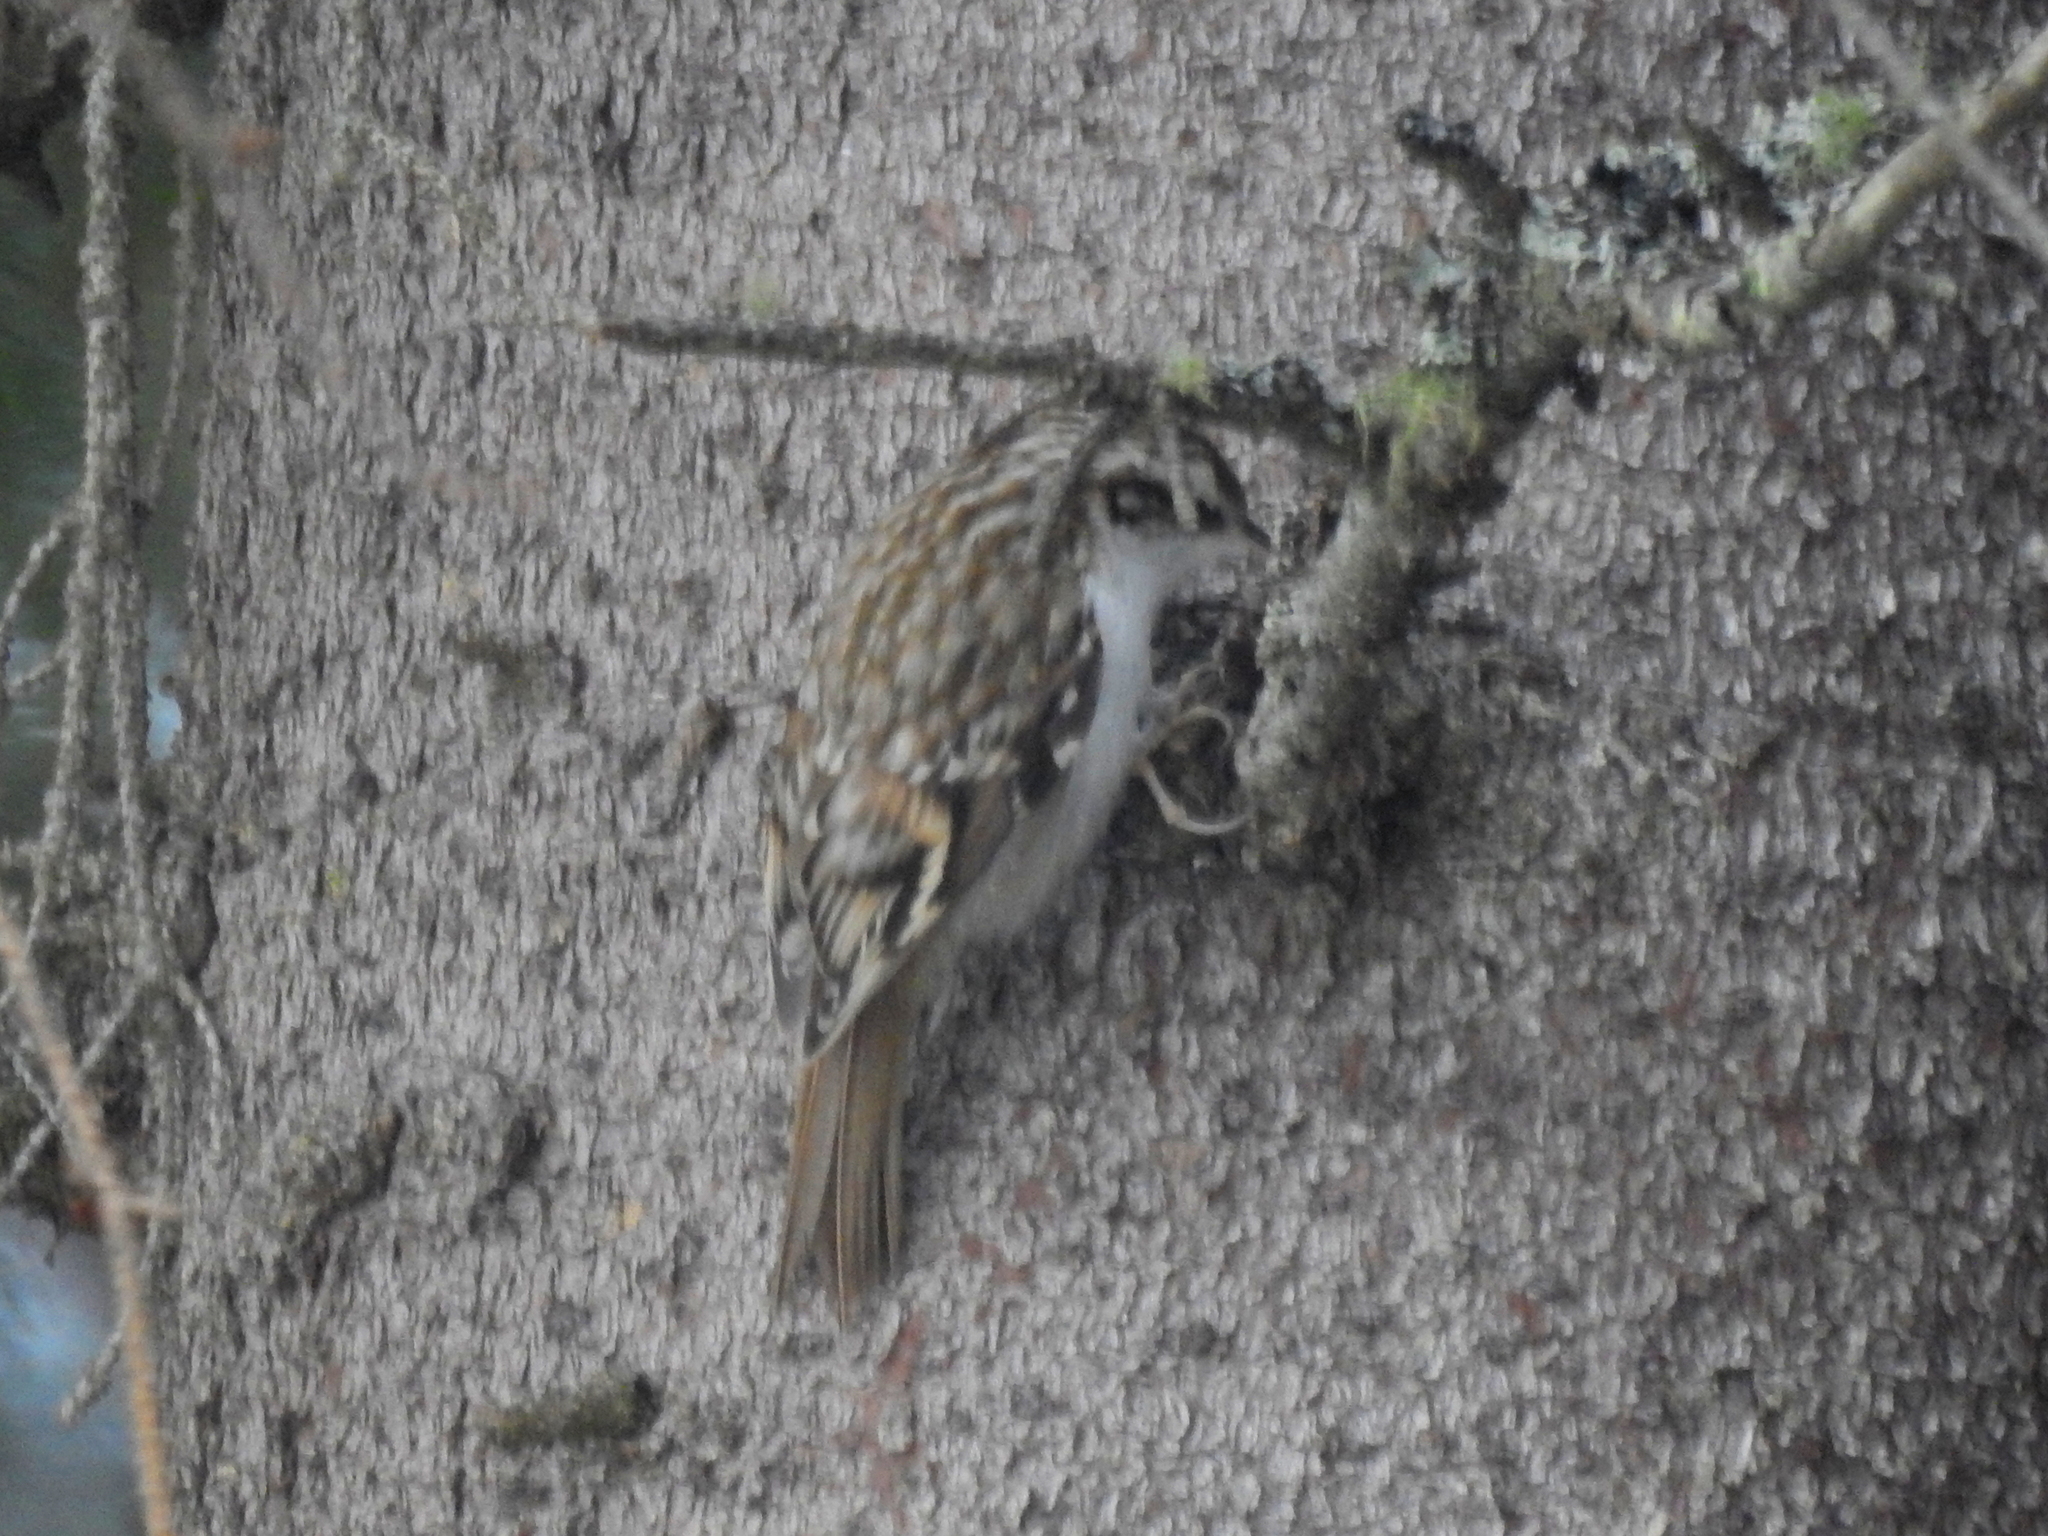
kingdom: Animalia
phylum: Chordata
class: Aves
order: Passeriformes
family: Certhiidae
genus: Certhia
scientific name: Certhia familiaris
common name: Eurasian treecreeper
